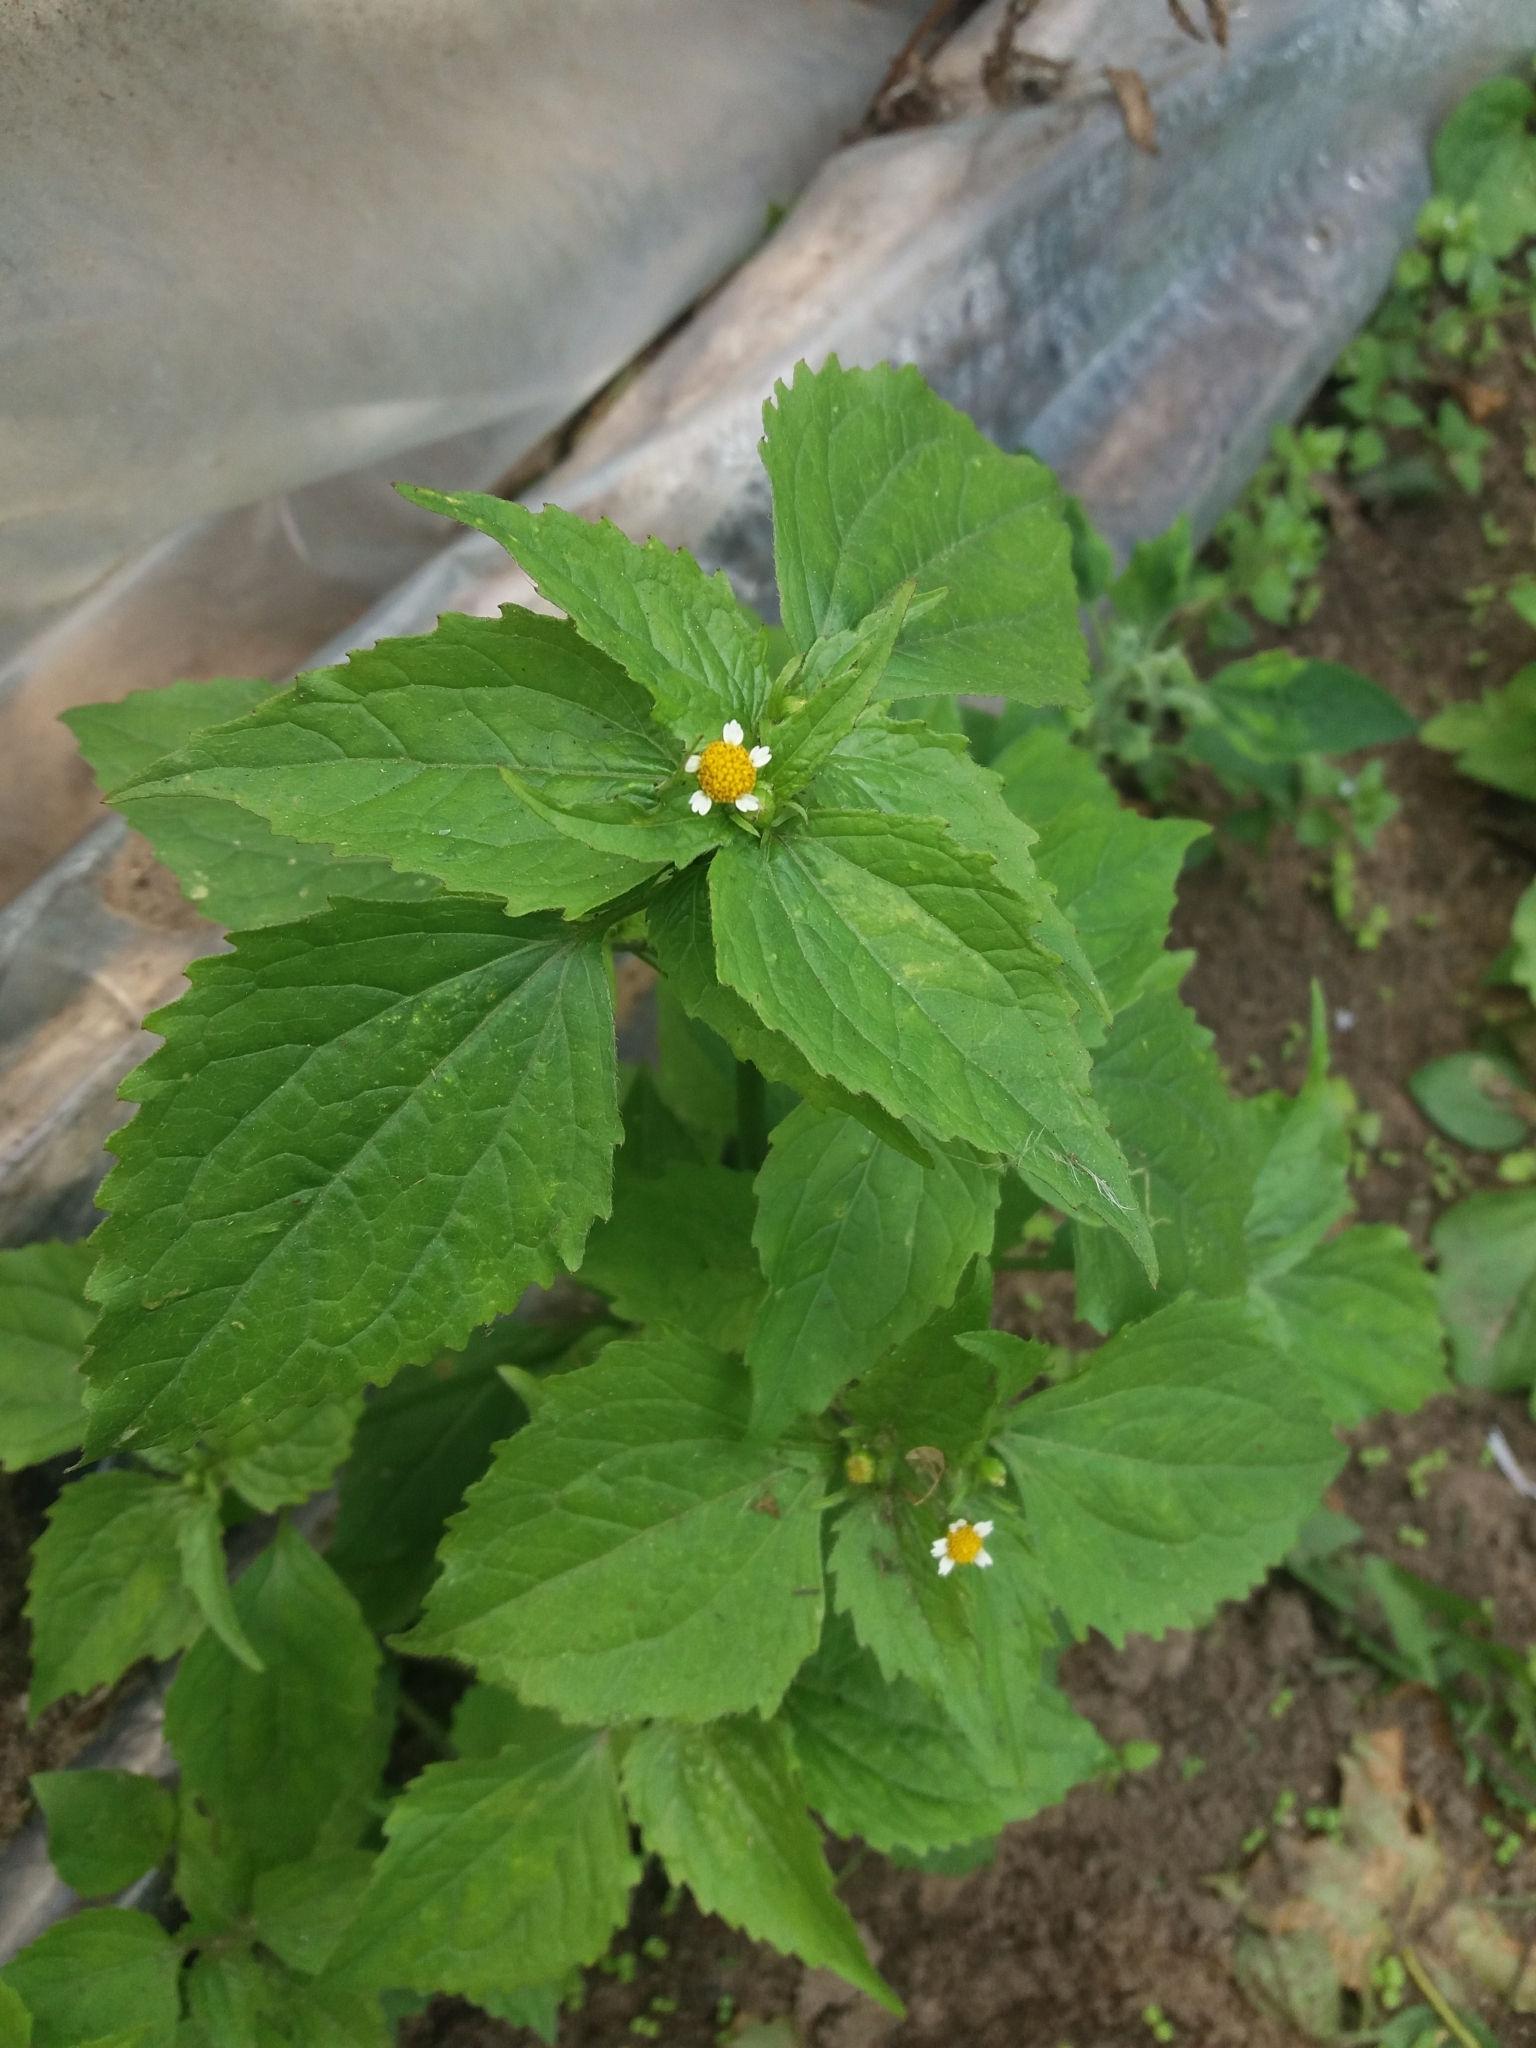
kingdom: Plantae
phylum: Tracheophyta
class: Magnoliopsida
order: Asterales
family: Asteraceae
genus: Galinsoga
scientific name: Galinsoga quadriradiata
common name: Shaggy soldier
